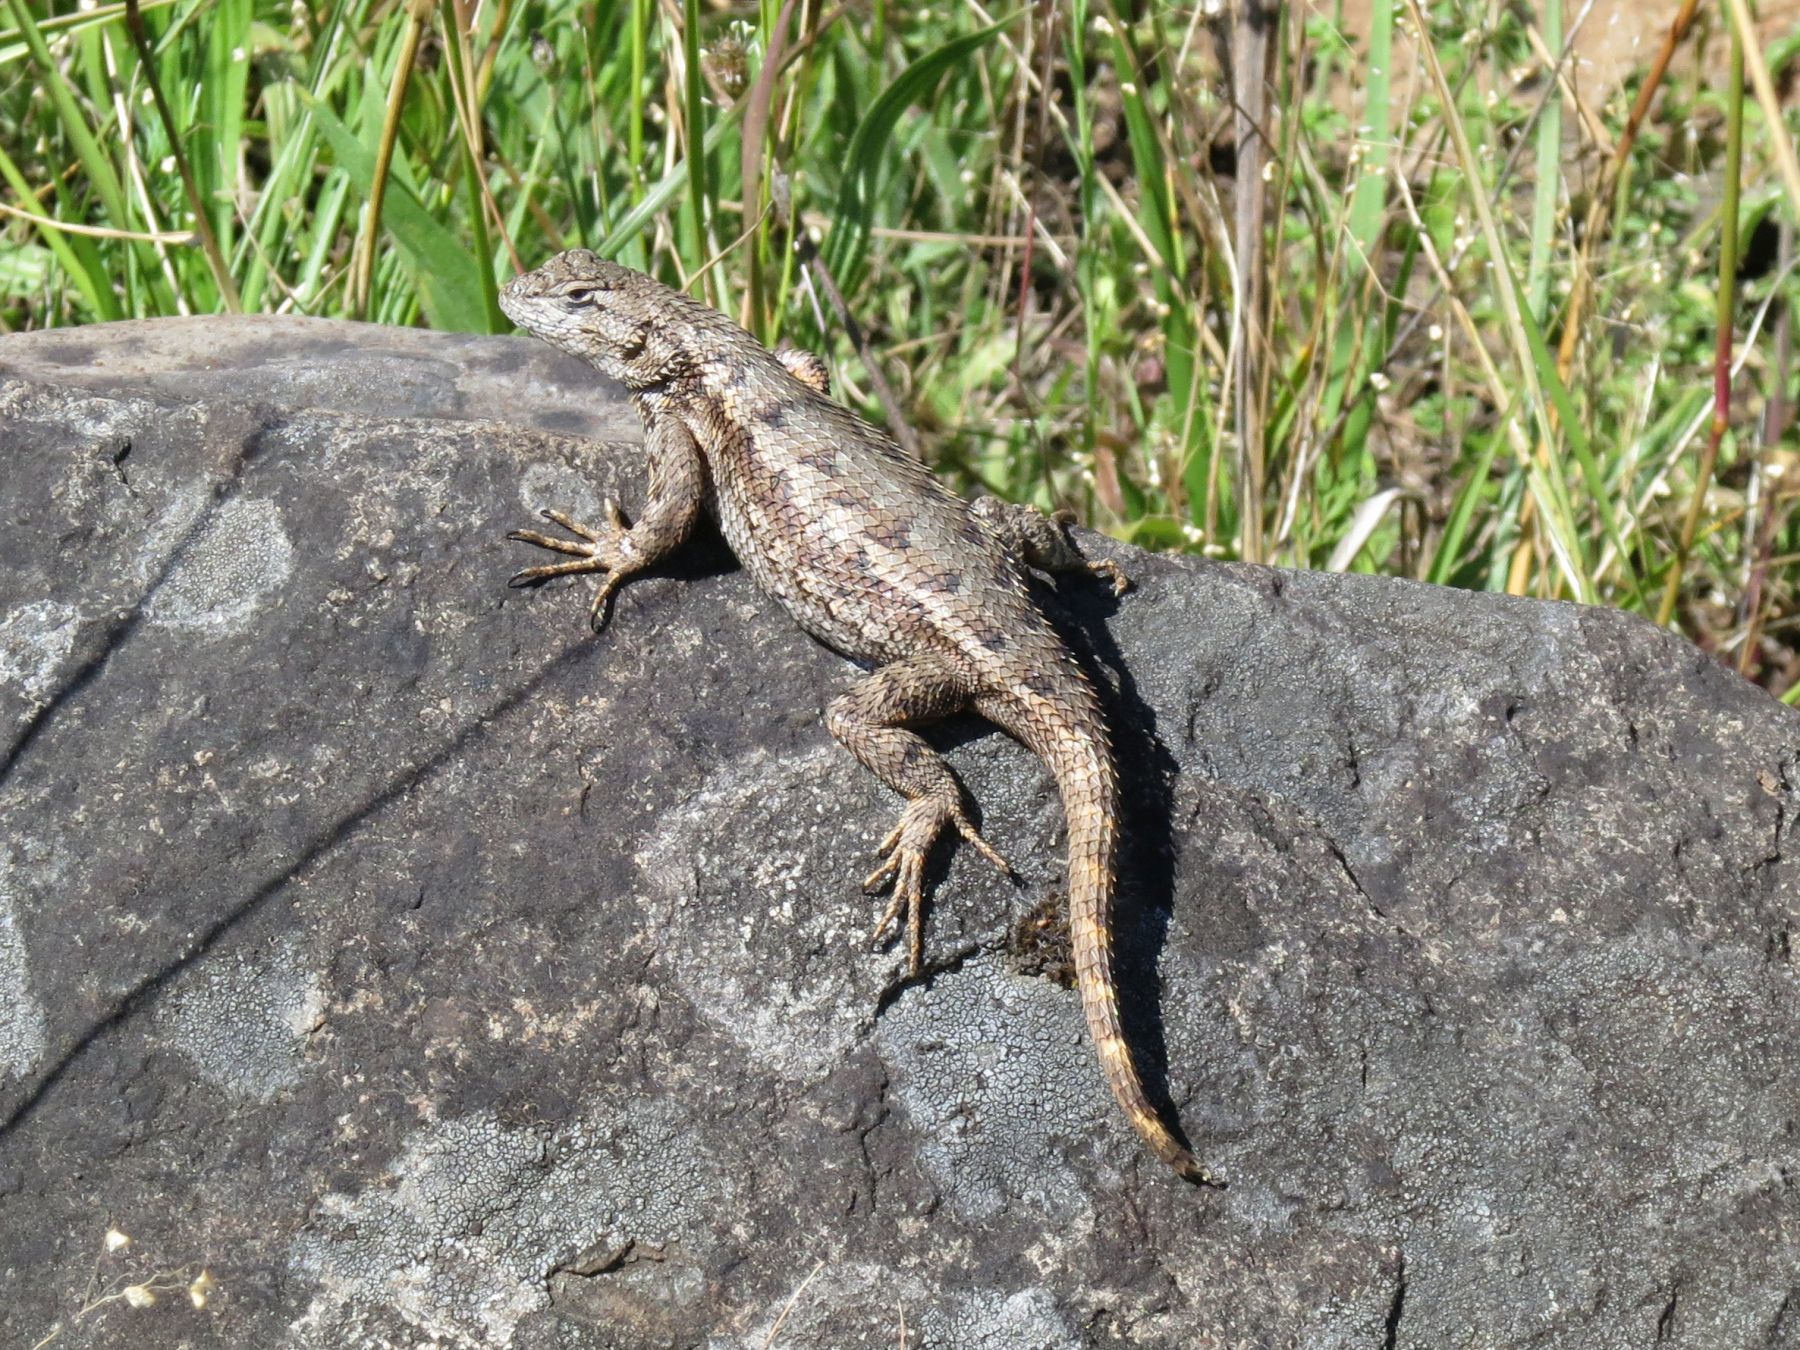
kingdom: Animalia
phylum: Chordata
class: Squamata
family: Phrynosomatidae
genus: Sceloporus
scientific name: Sceloporus occidentalis
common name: Western fence lizard
